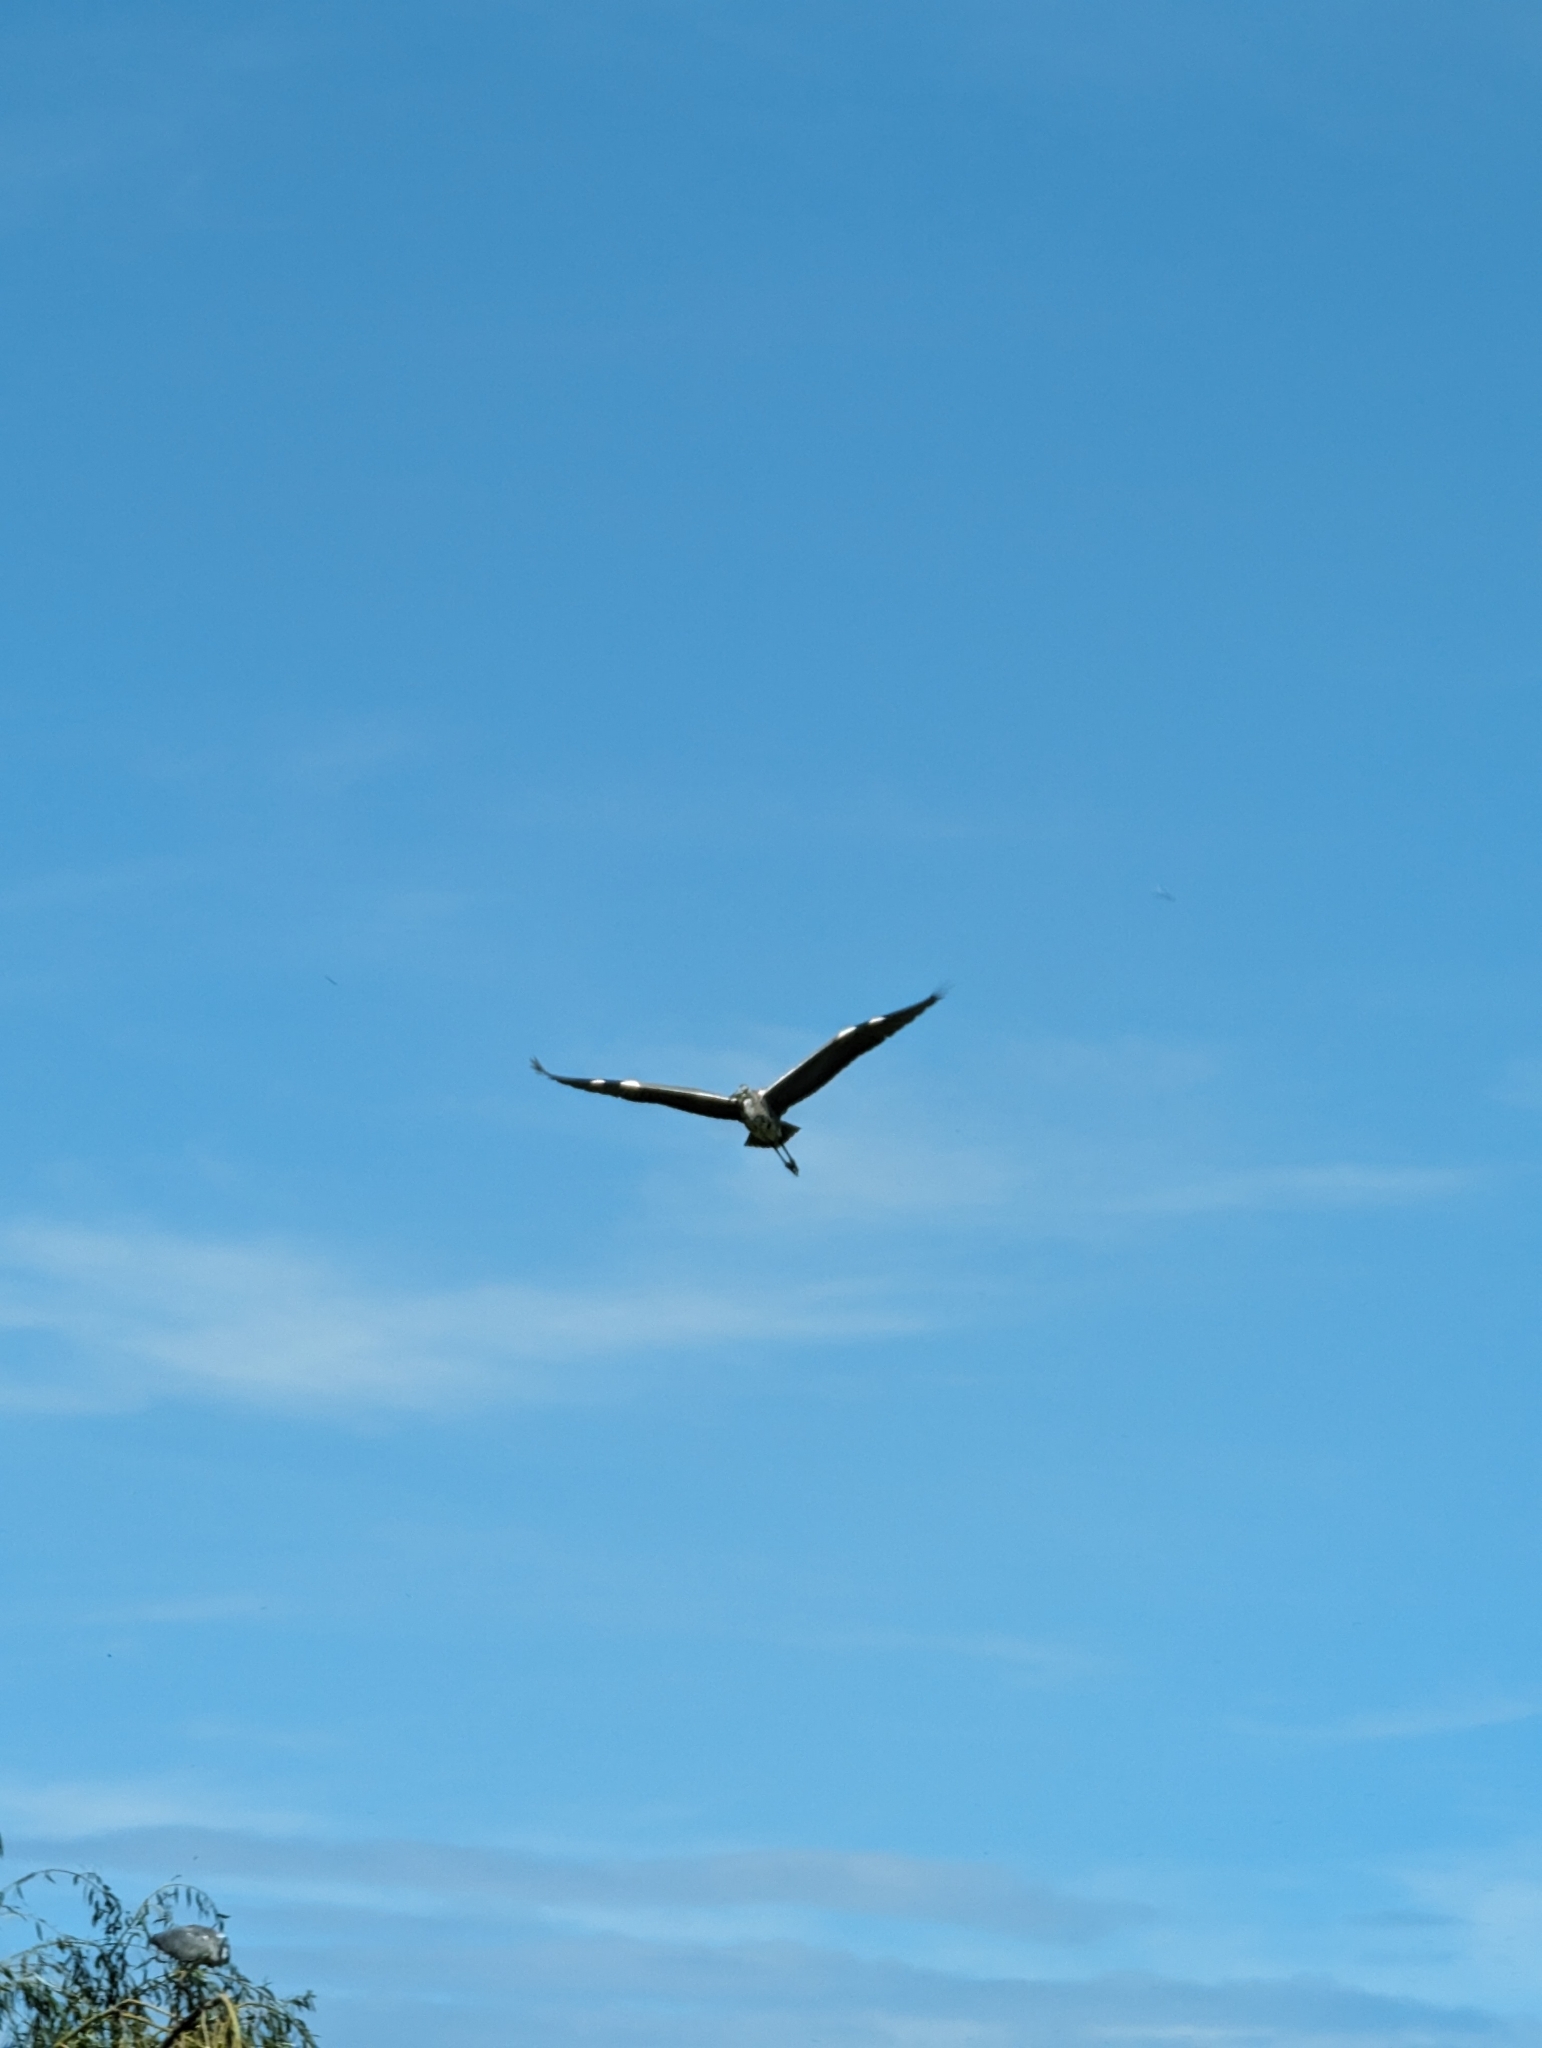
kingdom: Animalia
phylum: Chordata
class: Aves
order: Pelecaniformes
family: Ardeidae
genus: Ardea
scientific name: Ardea cinerea
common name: Grey heron
